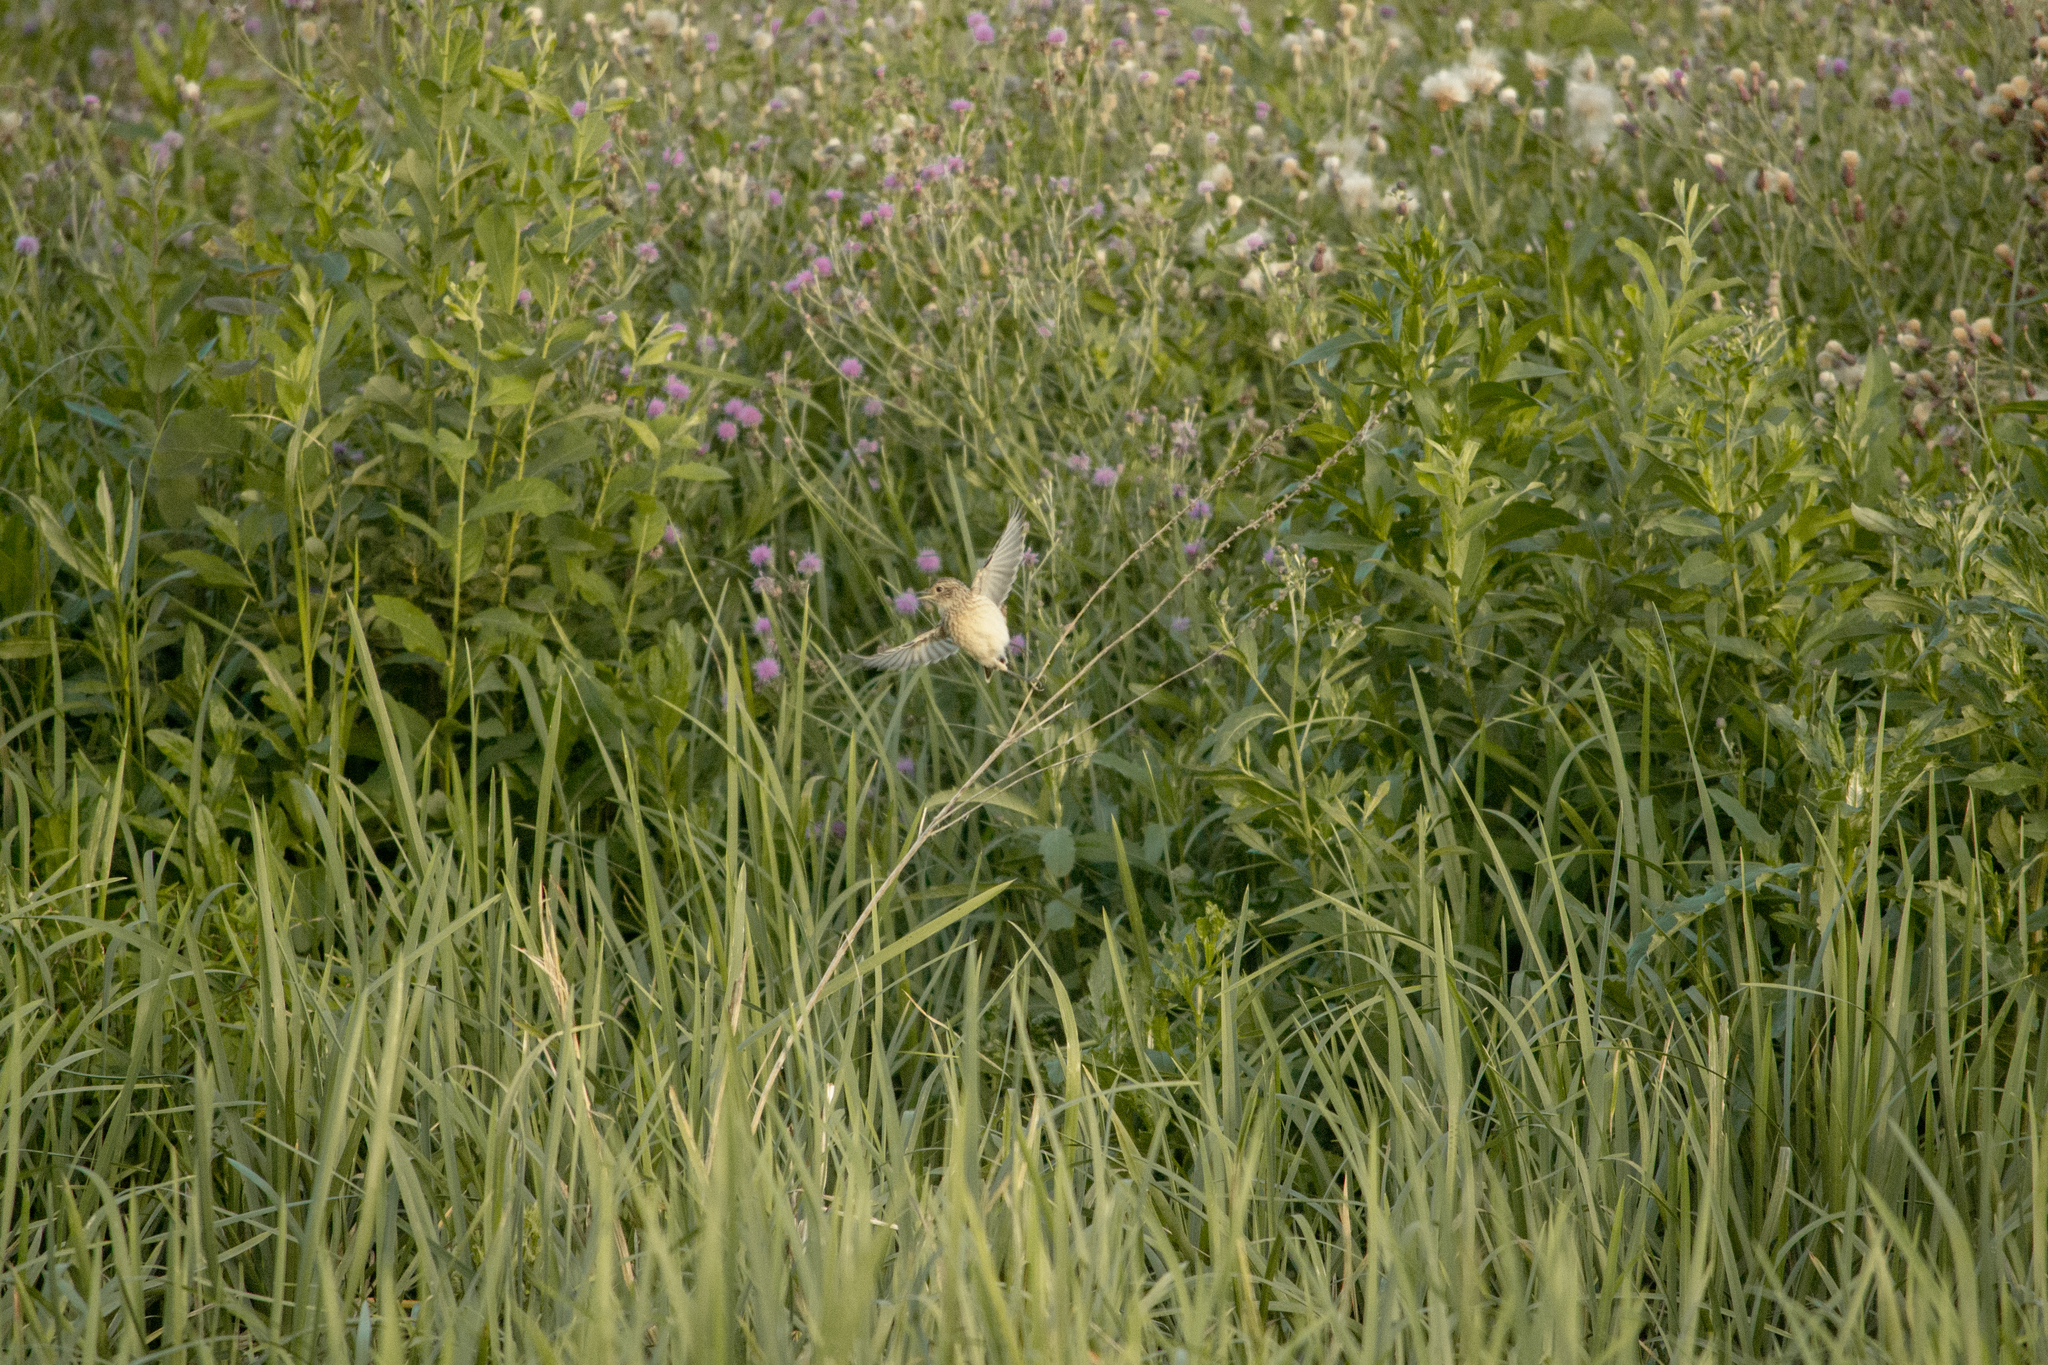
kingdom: Animalia
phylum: Chordata
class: Aves
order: Passeriformes
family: Muscicapidae
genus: Saxicola
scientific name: Saxicola rubetra
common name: Whinchat
